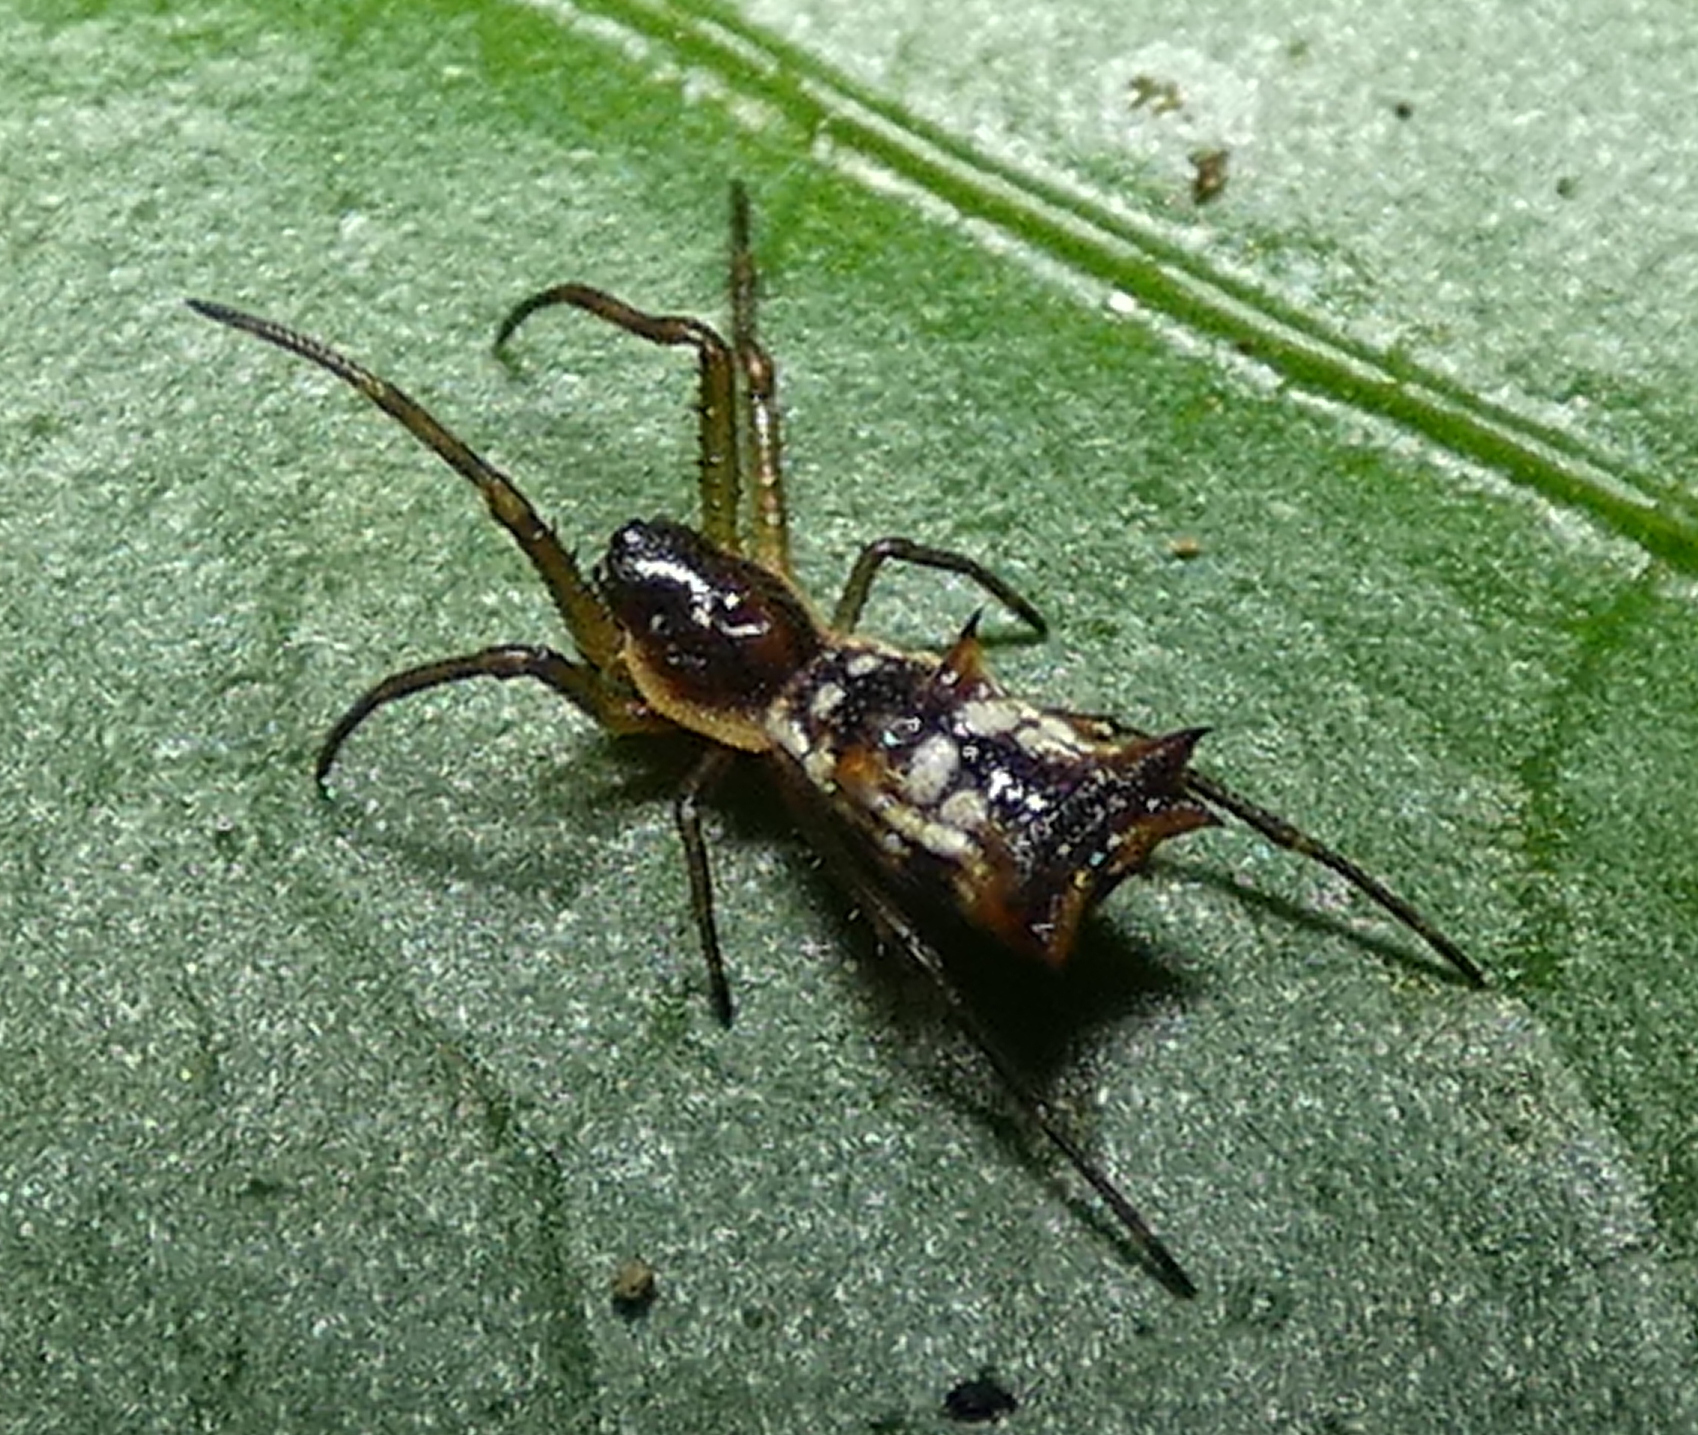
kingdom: Animalia
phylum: Arthropoda
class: Arachnida
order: Araneae
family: Araneidae
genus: Micrathena
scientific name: Micrathena fissispina
